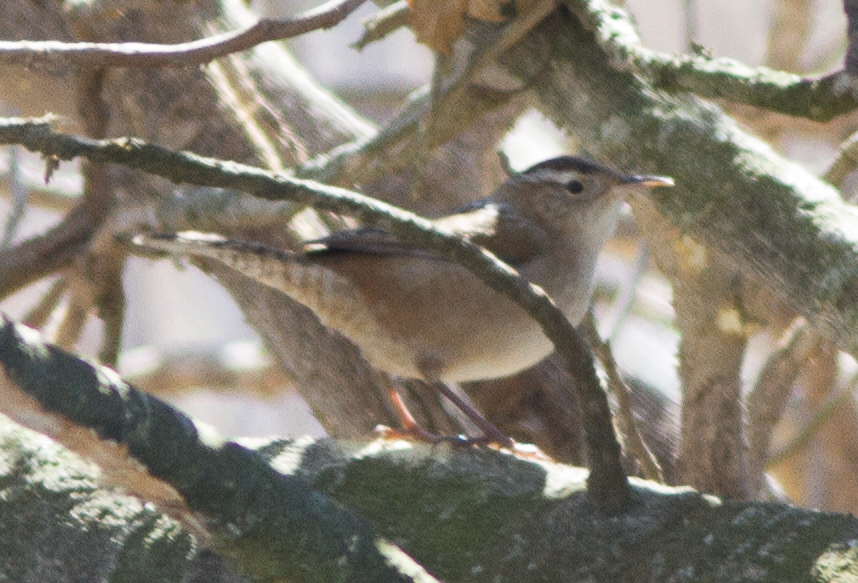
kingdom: Animalia
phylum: Chordata
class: Aves
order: Passeriformes
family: Troglodytidae
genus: Cistothorus
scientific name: Cistothorus palustris
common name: Marsh wren
